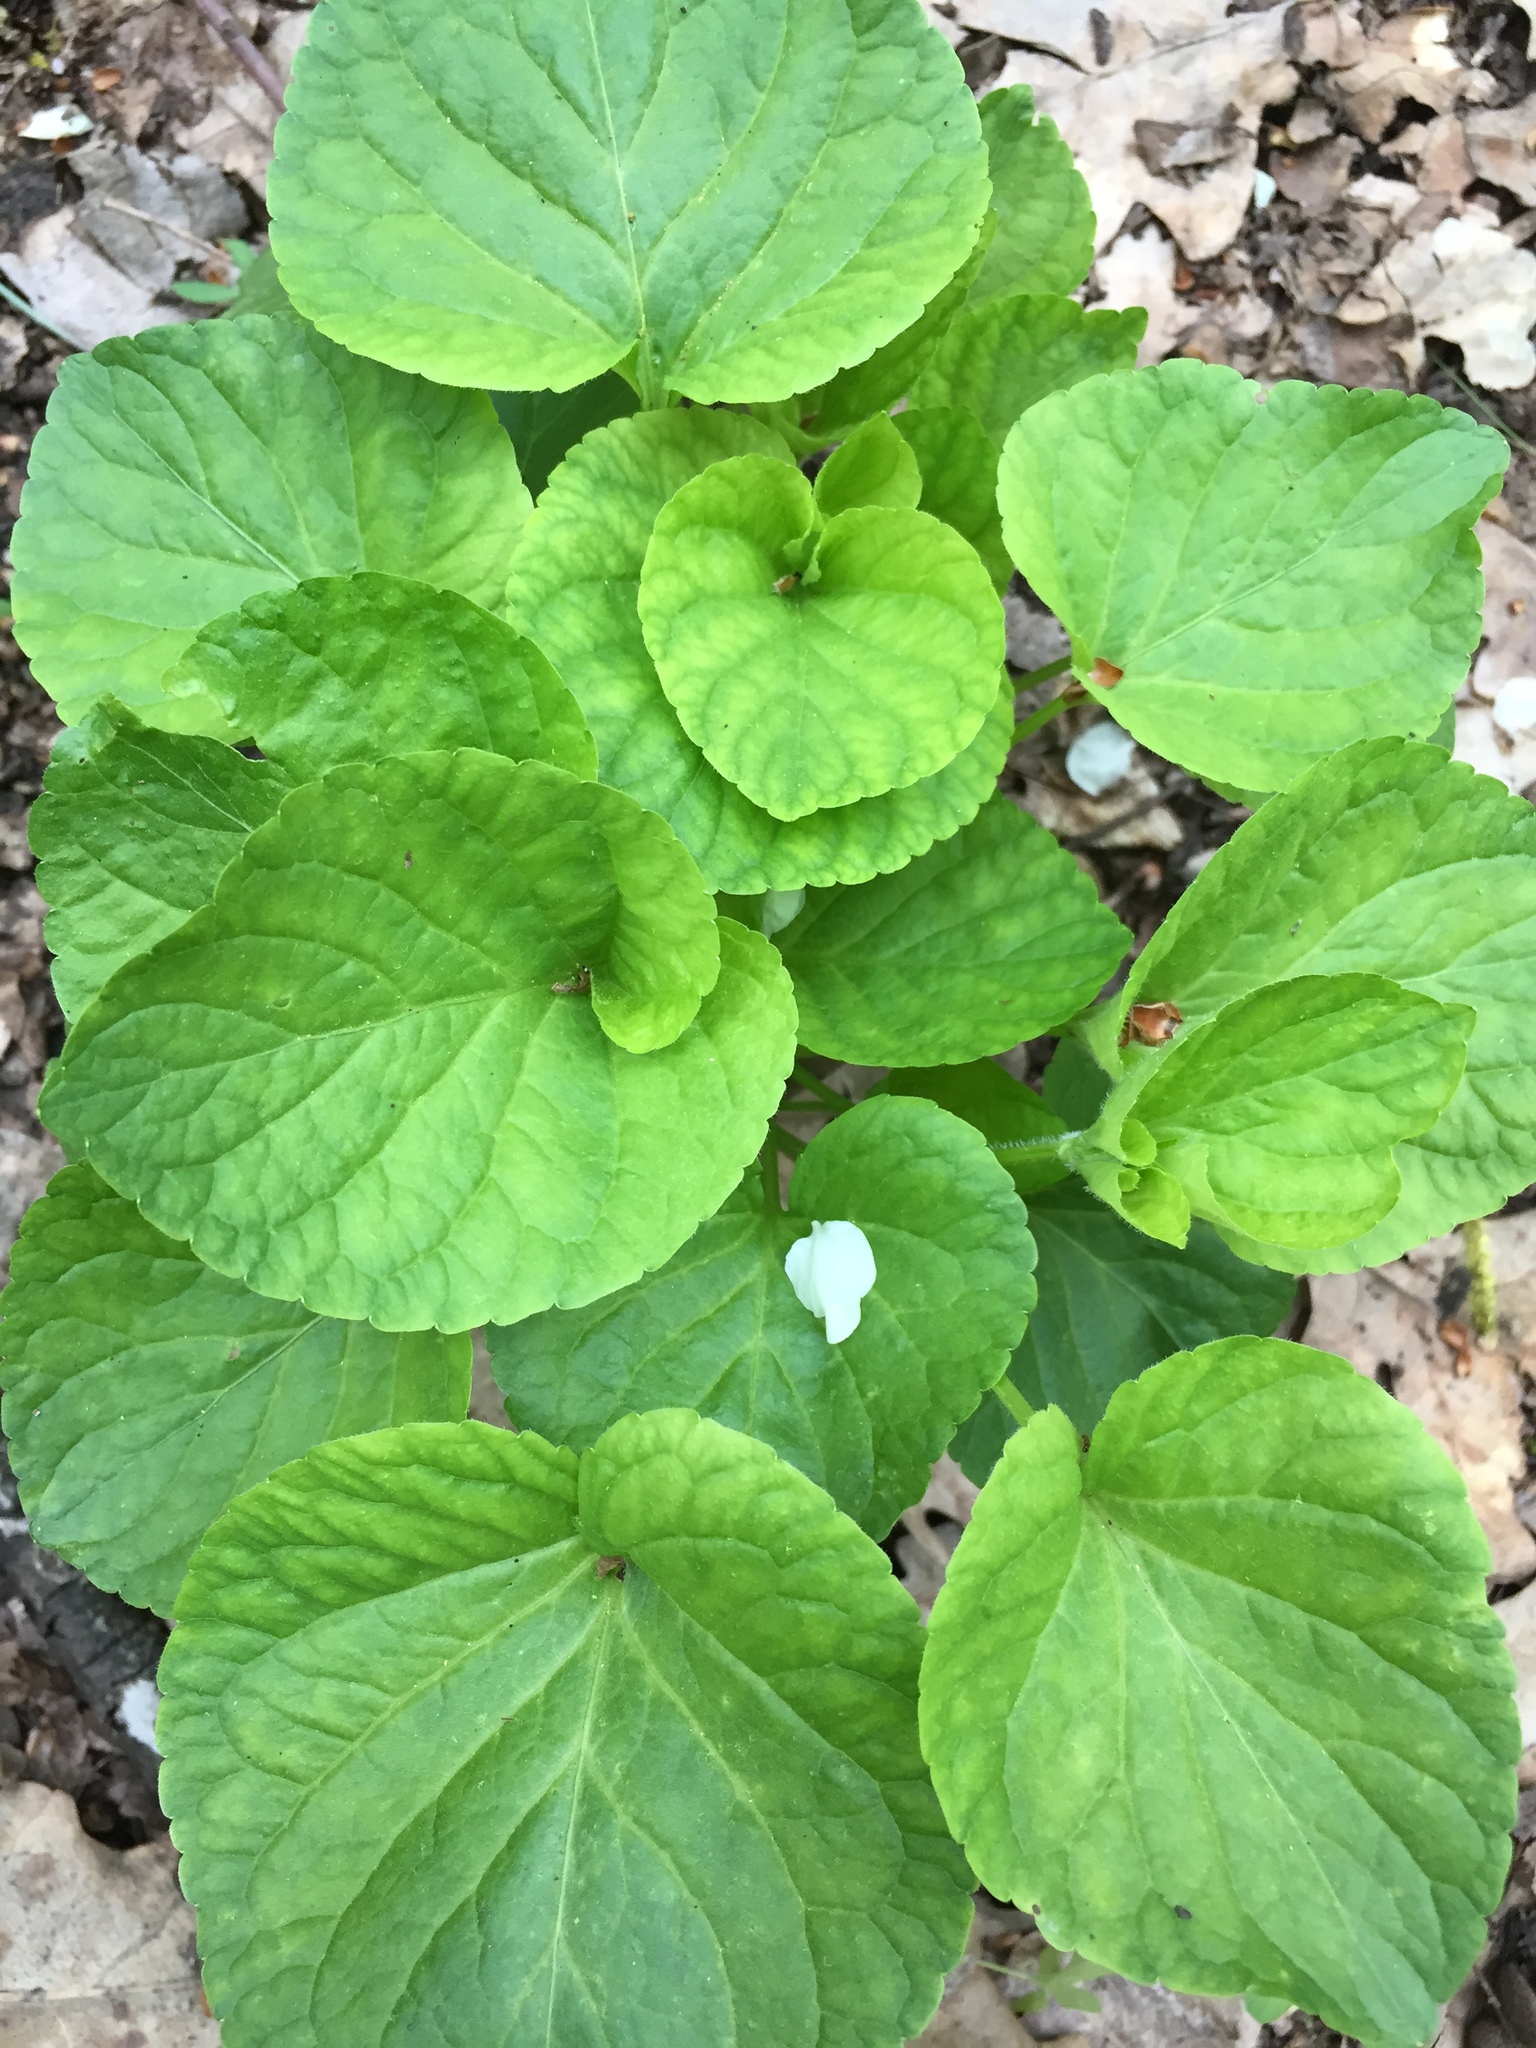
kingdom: Plantae
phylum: Tracheophyta
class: Magnoliopsida
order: Malpighiales
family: Violaceae
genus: Viola
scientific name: Viola mirabilis
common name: Wonder violet
